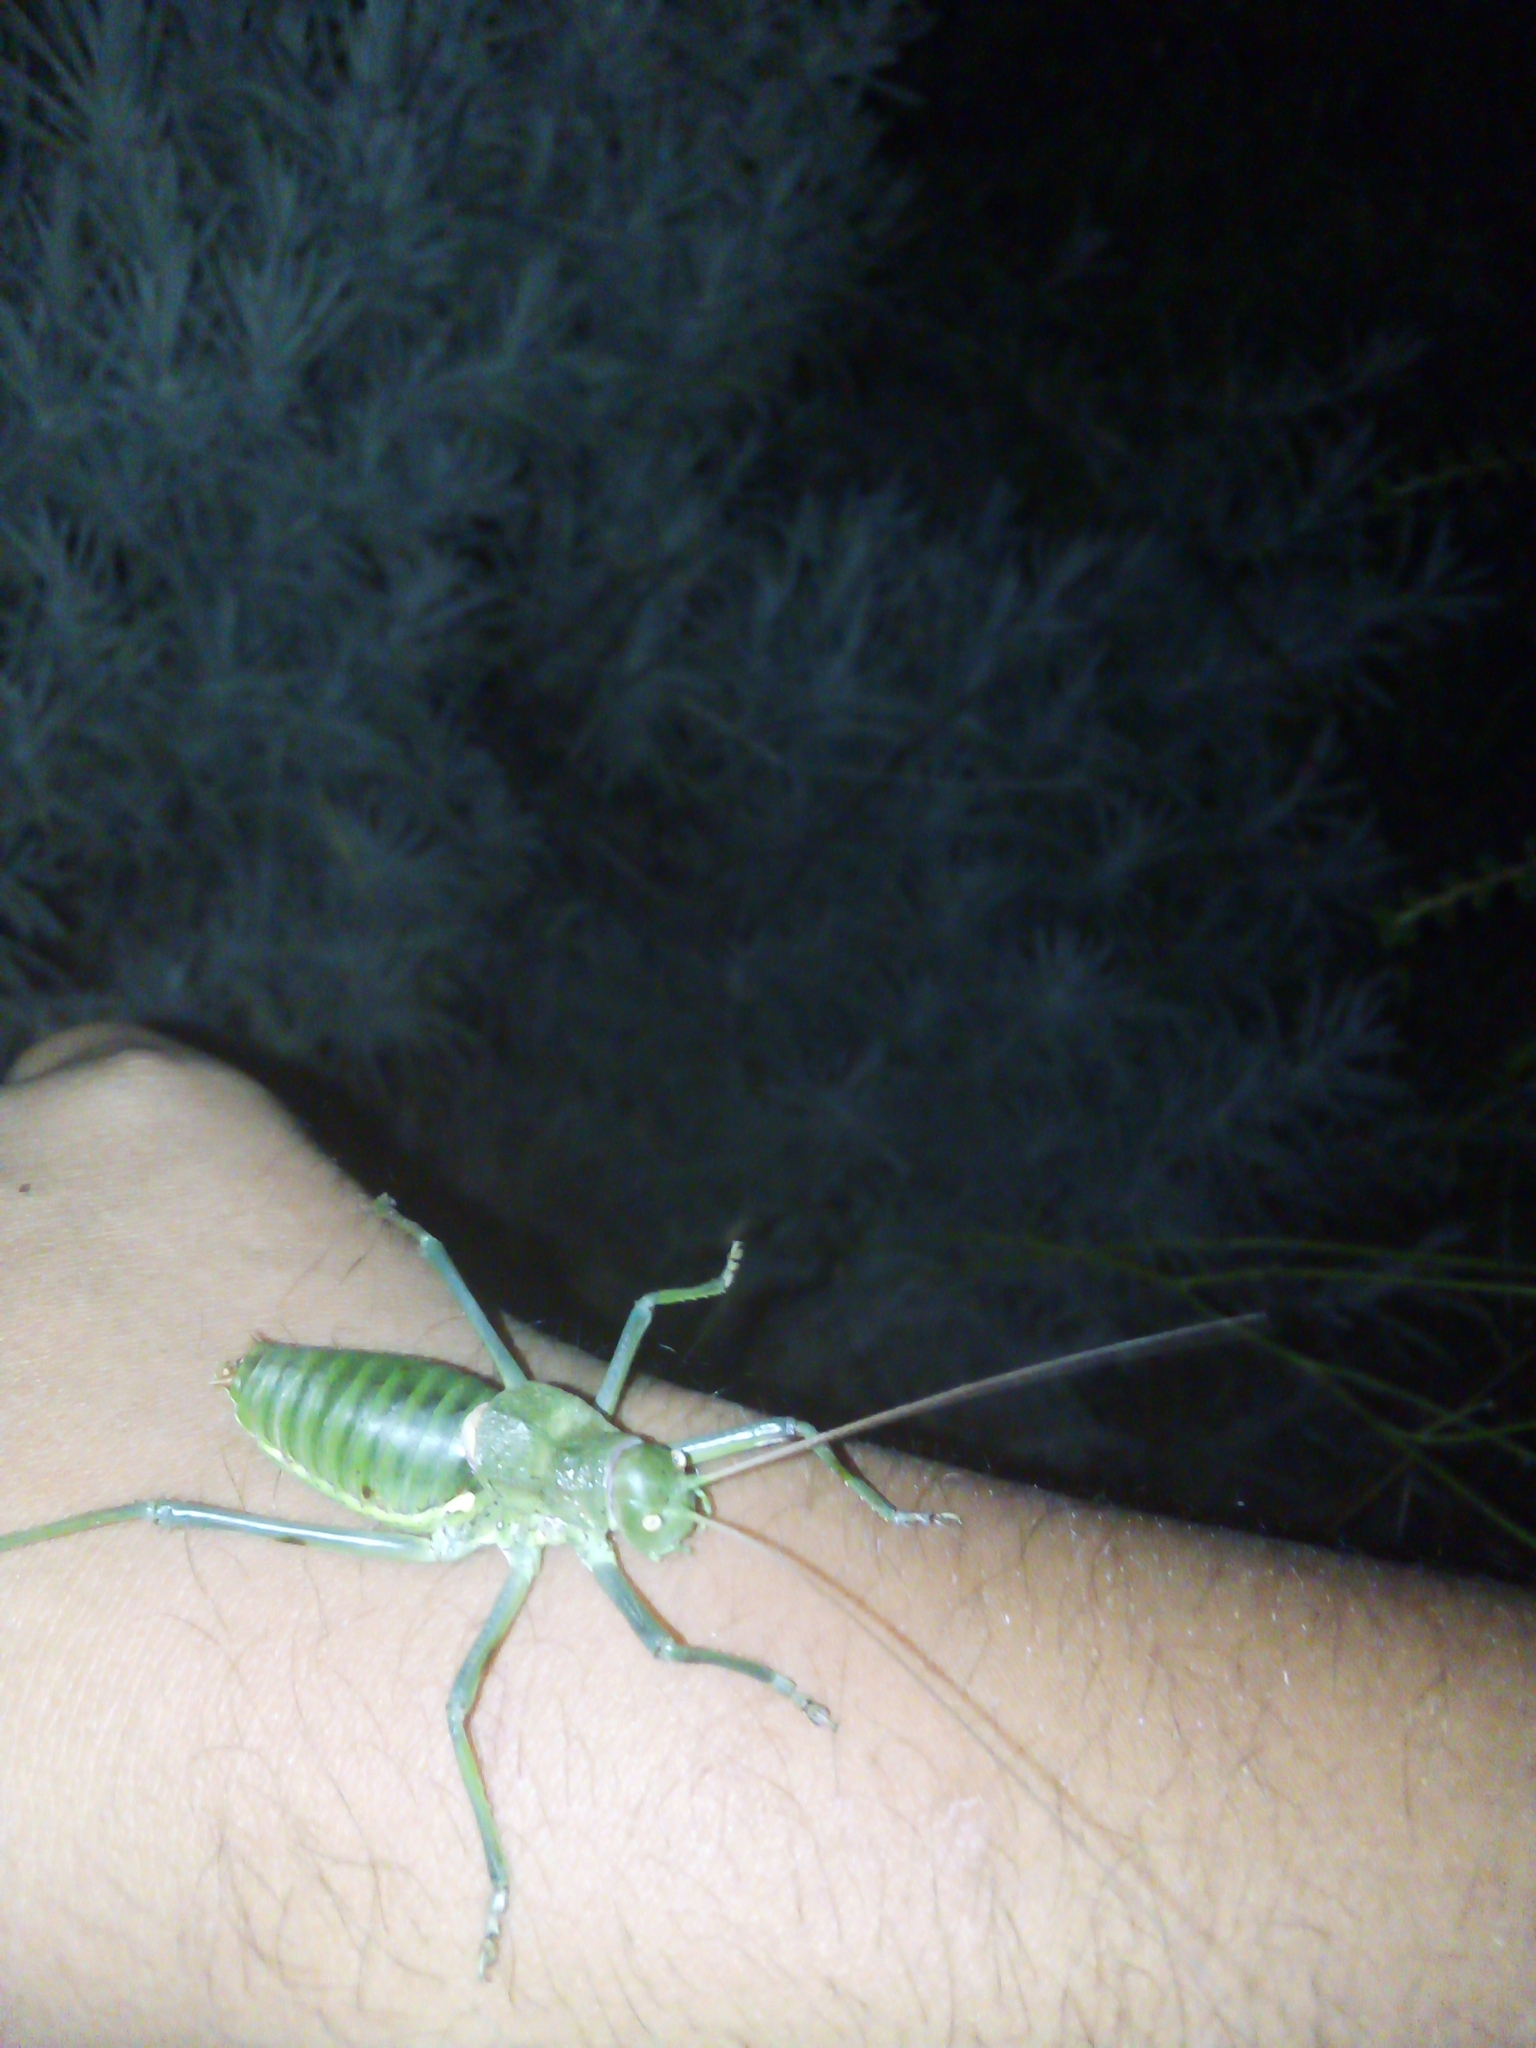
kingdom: Animalia
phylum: Arthropoda
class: Insecta
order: Orthoptera
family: Tettigoniidae
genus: Neocallicrania
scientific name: Neocallicrania selligera
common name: Lusitanian saddle bush-cricket
